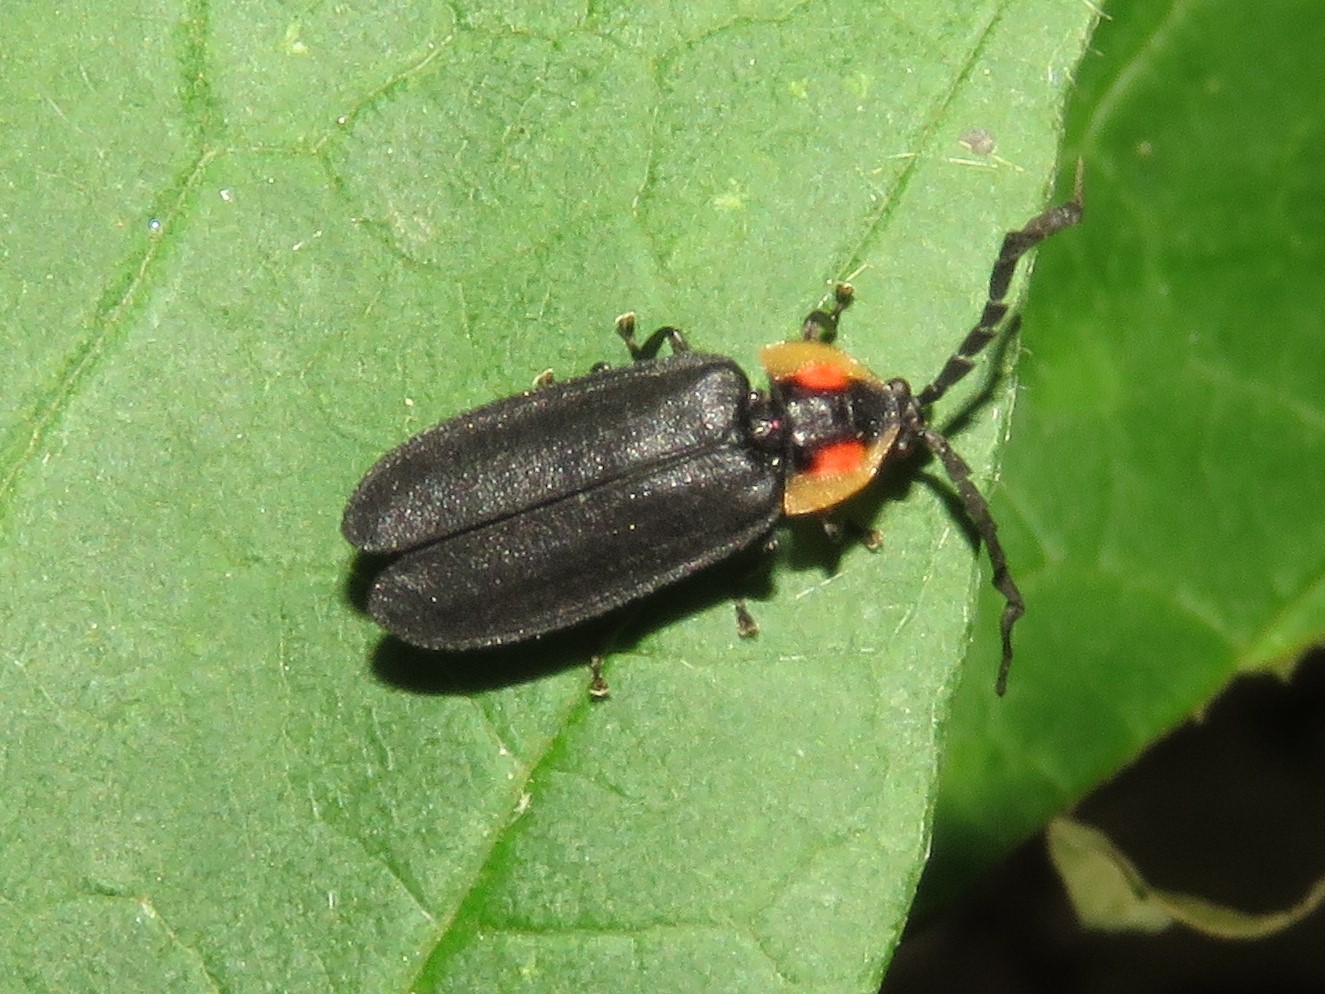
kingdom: Animalia
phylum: Arthropoda
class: Insecta
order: Coleoptera
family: Lampyridae
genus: Lucidota
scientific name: Lucidota atra
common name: Black firefly
